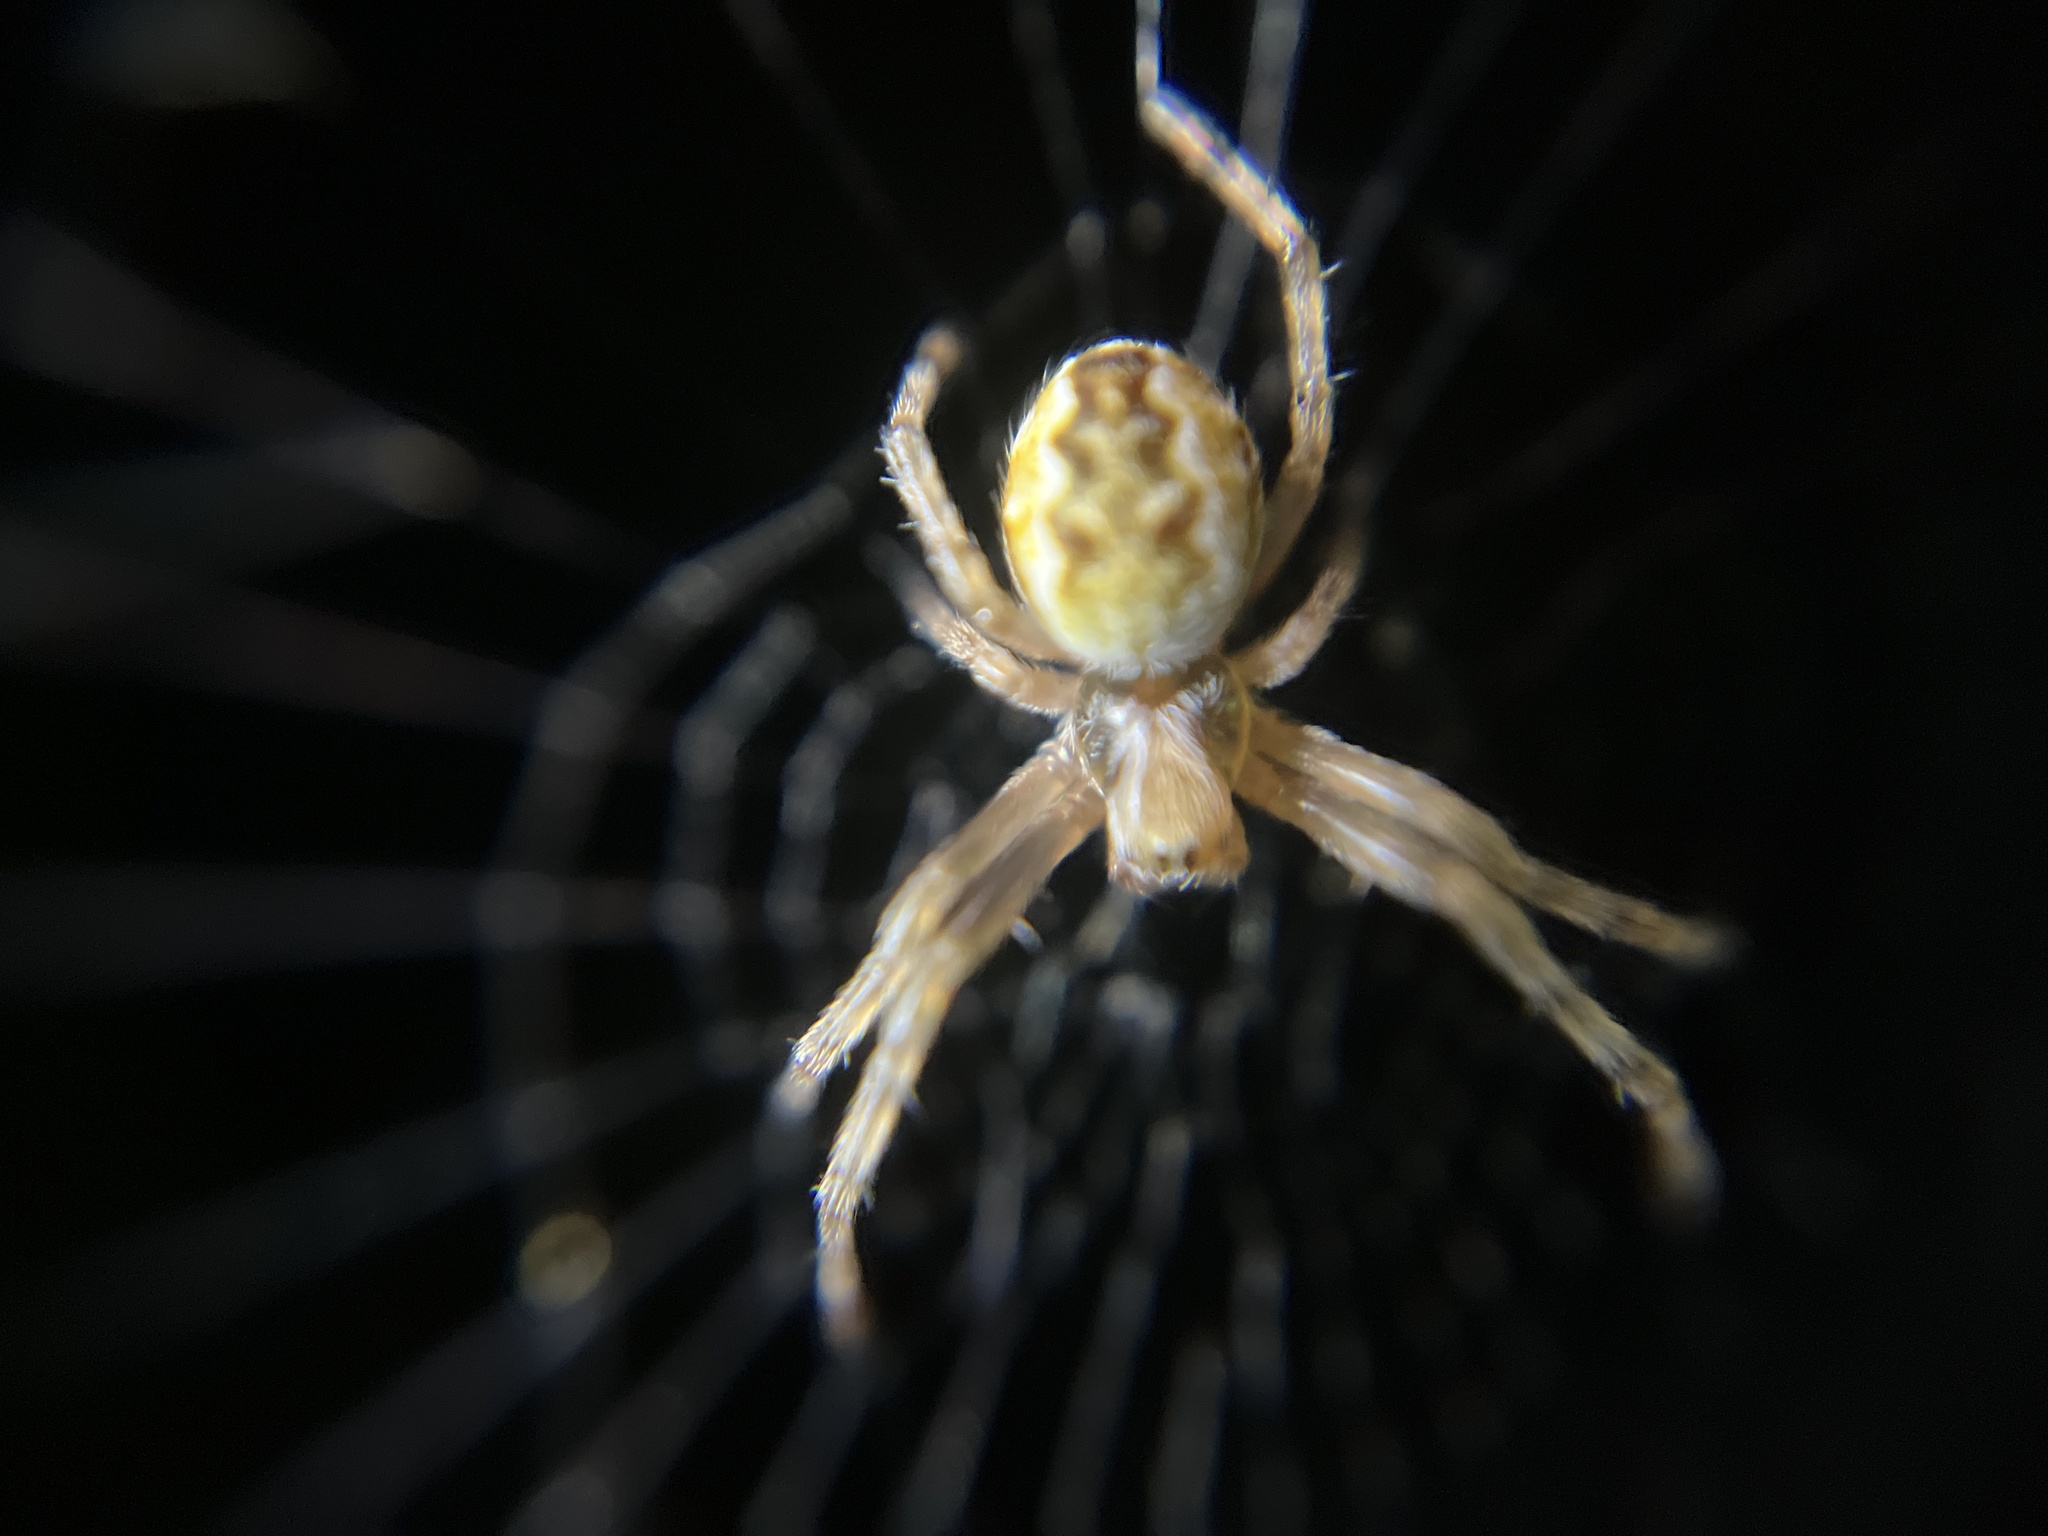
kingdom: Animalia
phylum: Arthropoda
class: Arachnida
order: Araneae
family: Araneidae
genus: Salsa
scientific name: Salsa fuliginata
